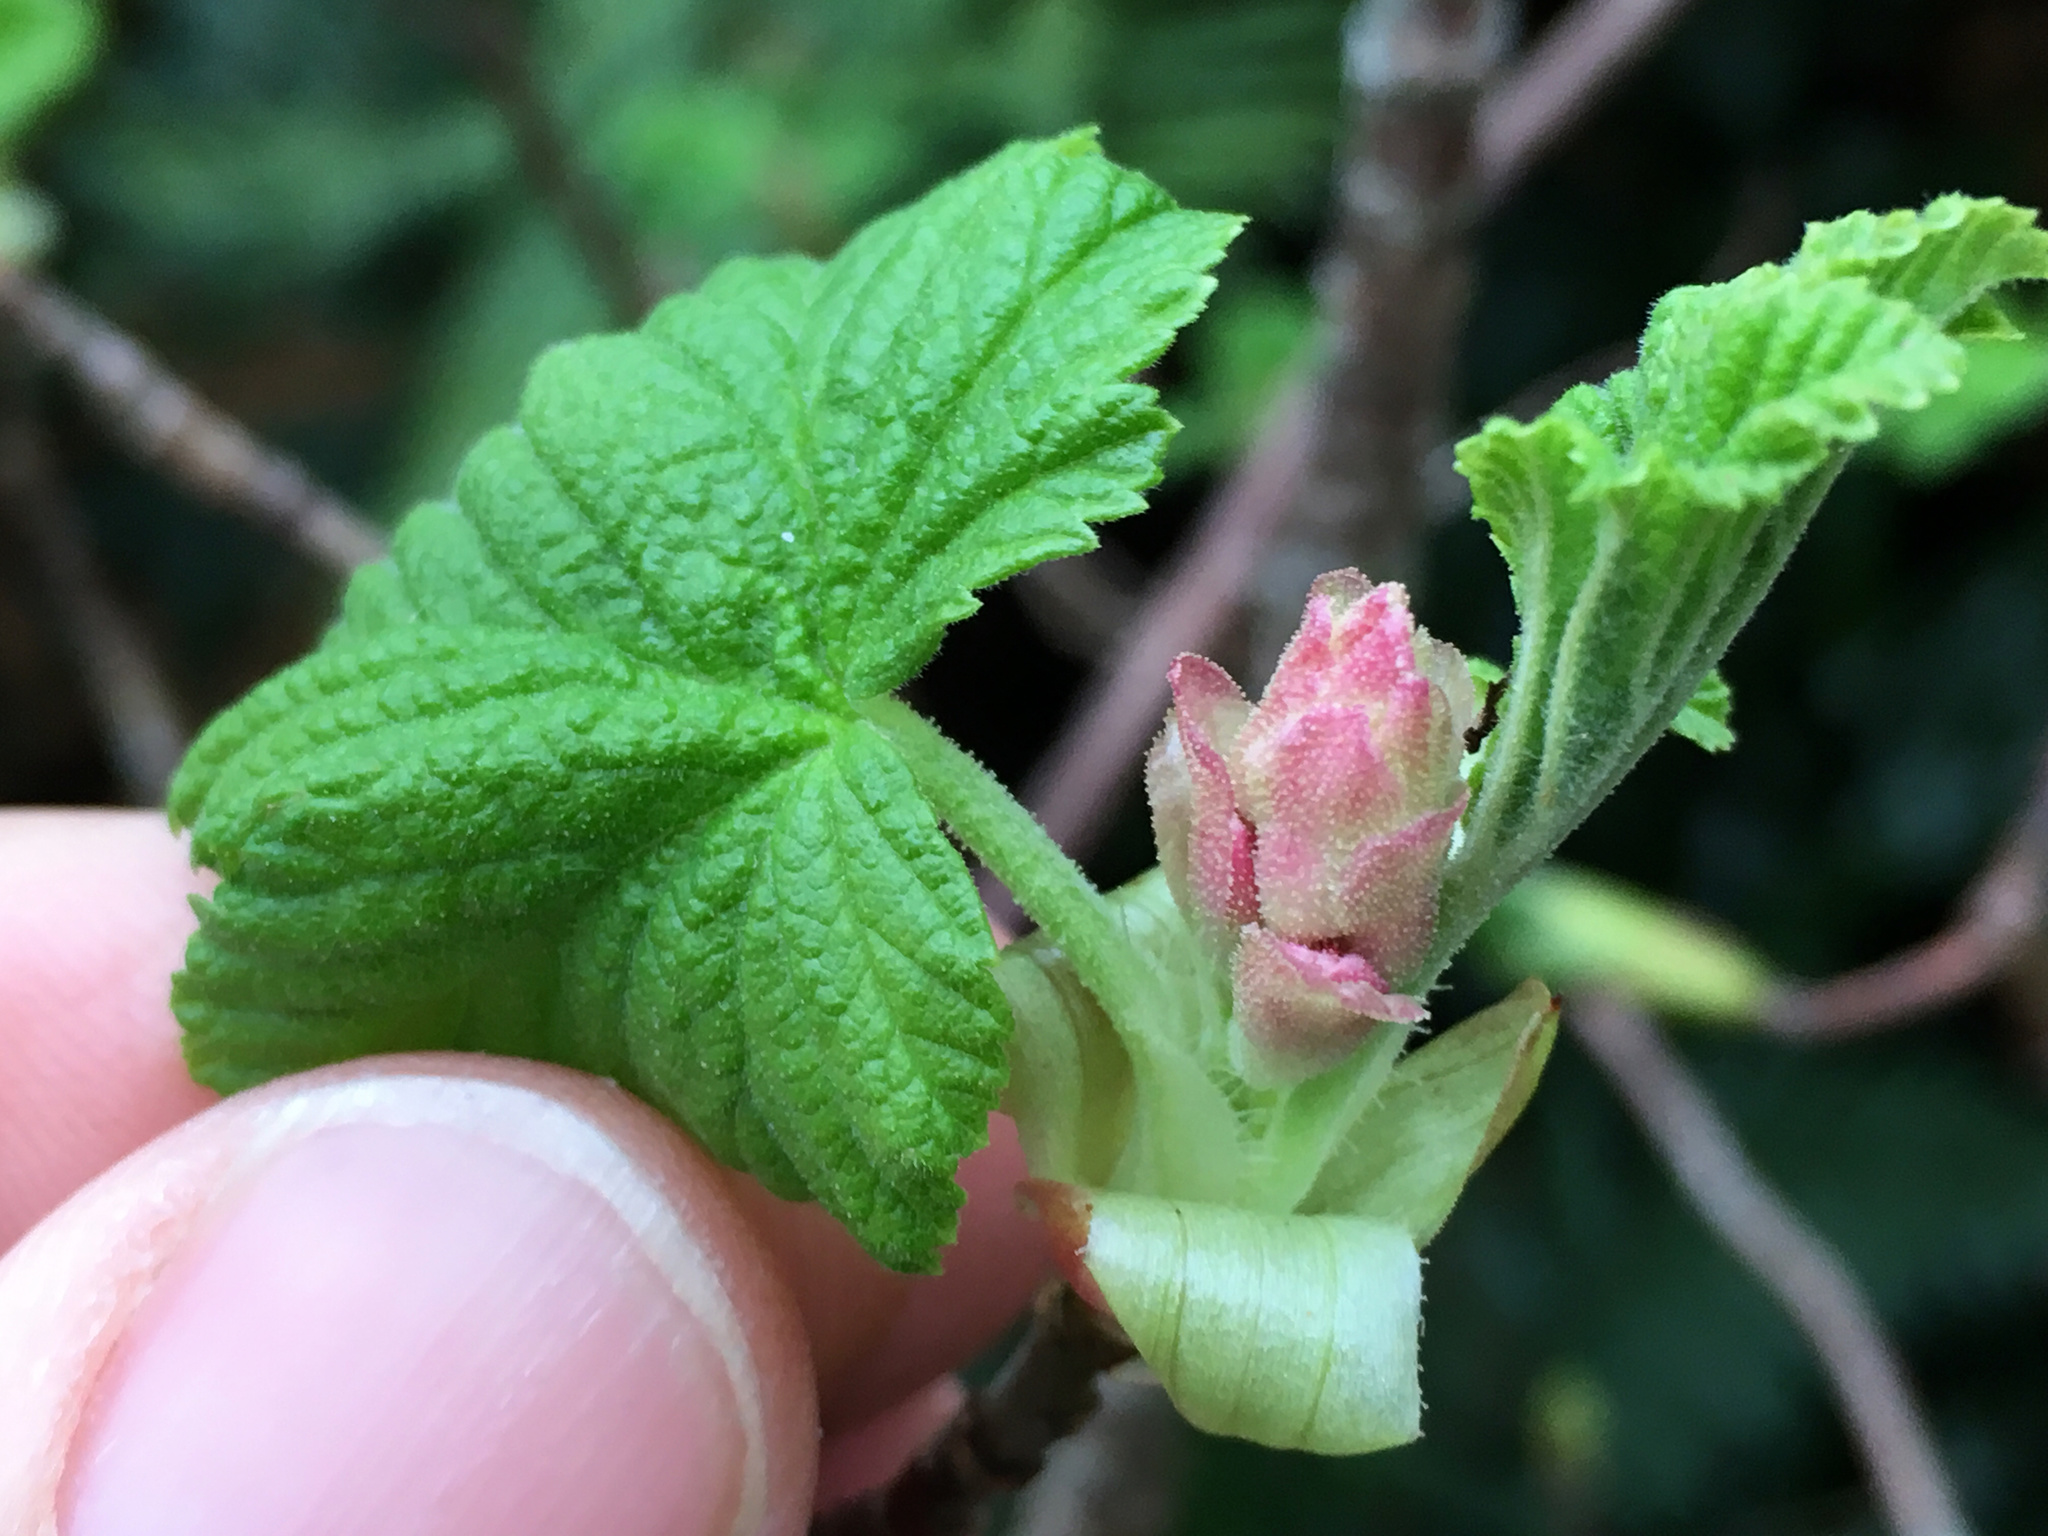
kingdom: Plantae
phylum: Tracheophyta
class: Magnoliopsida
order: Saxifragales
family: Grossulariaceae
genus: Ribes
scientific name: Ribes sanguineum
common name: Flowering currant
